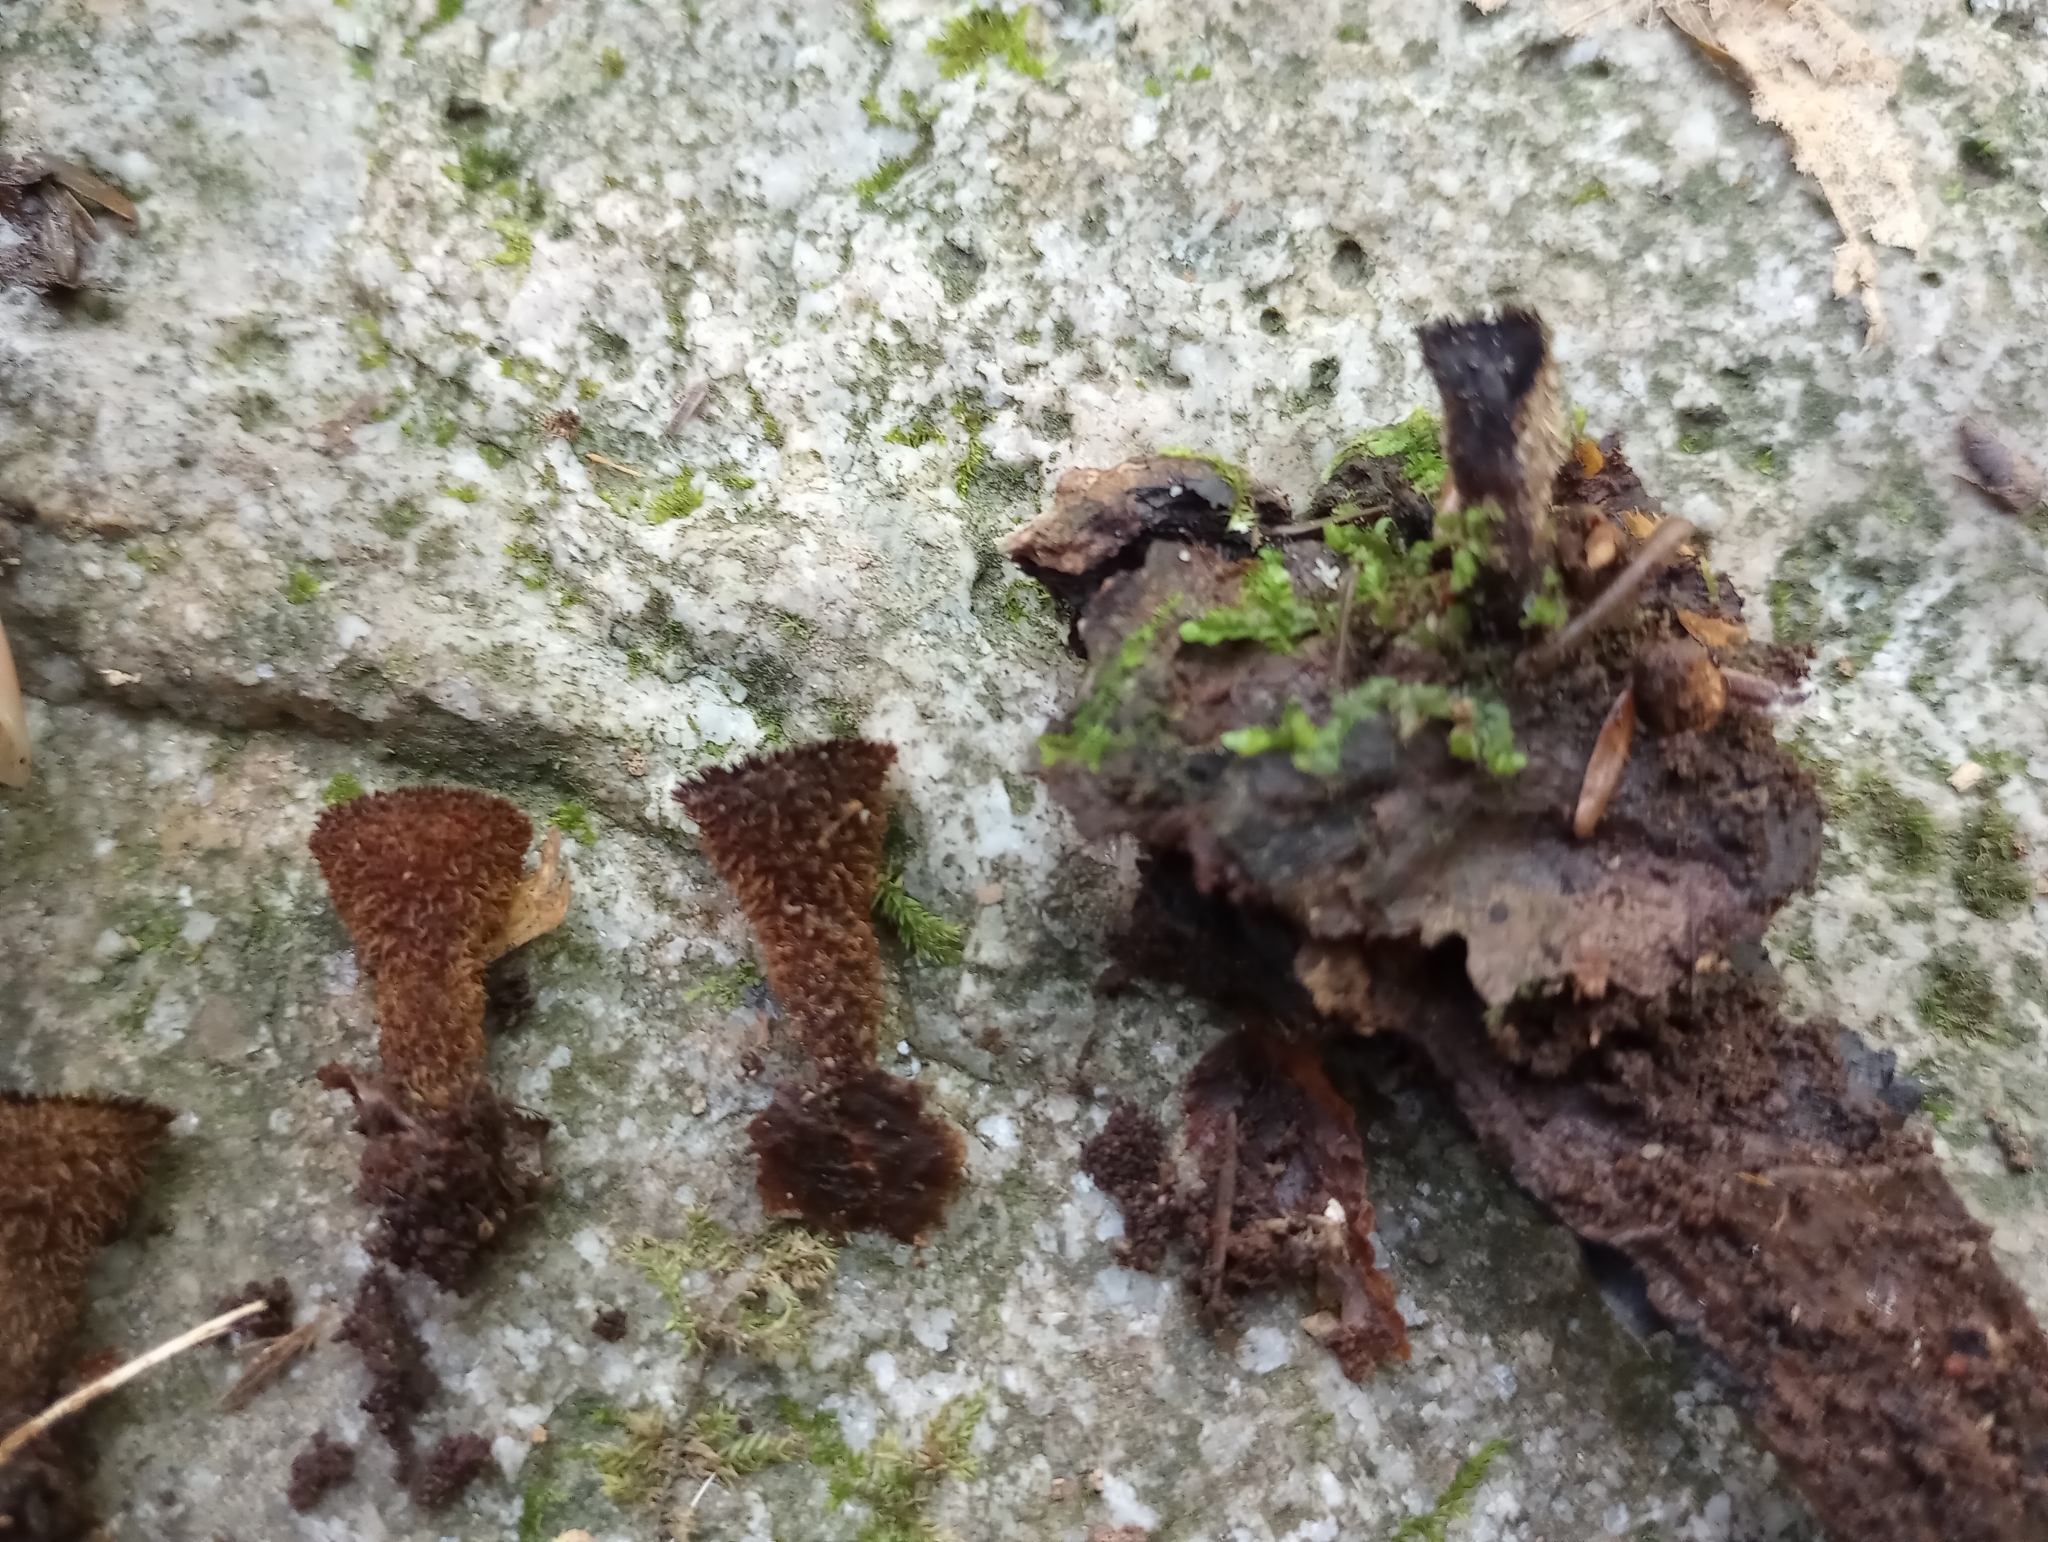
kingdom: Fungi
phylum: Basidiomycota
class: Agaricomycetes
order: Agaricales
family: Agaricaceae
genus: Cyathus
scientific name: Cyathus striatus
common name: Fluted bird's nest
